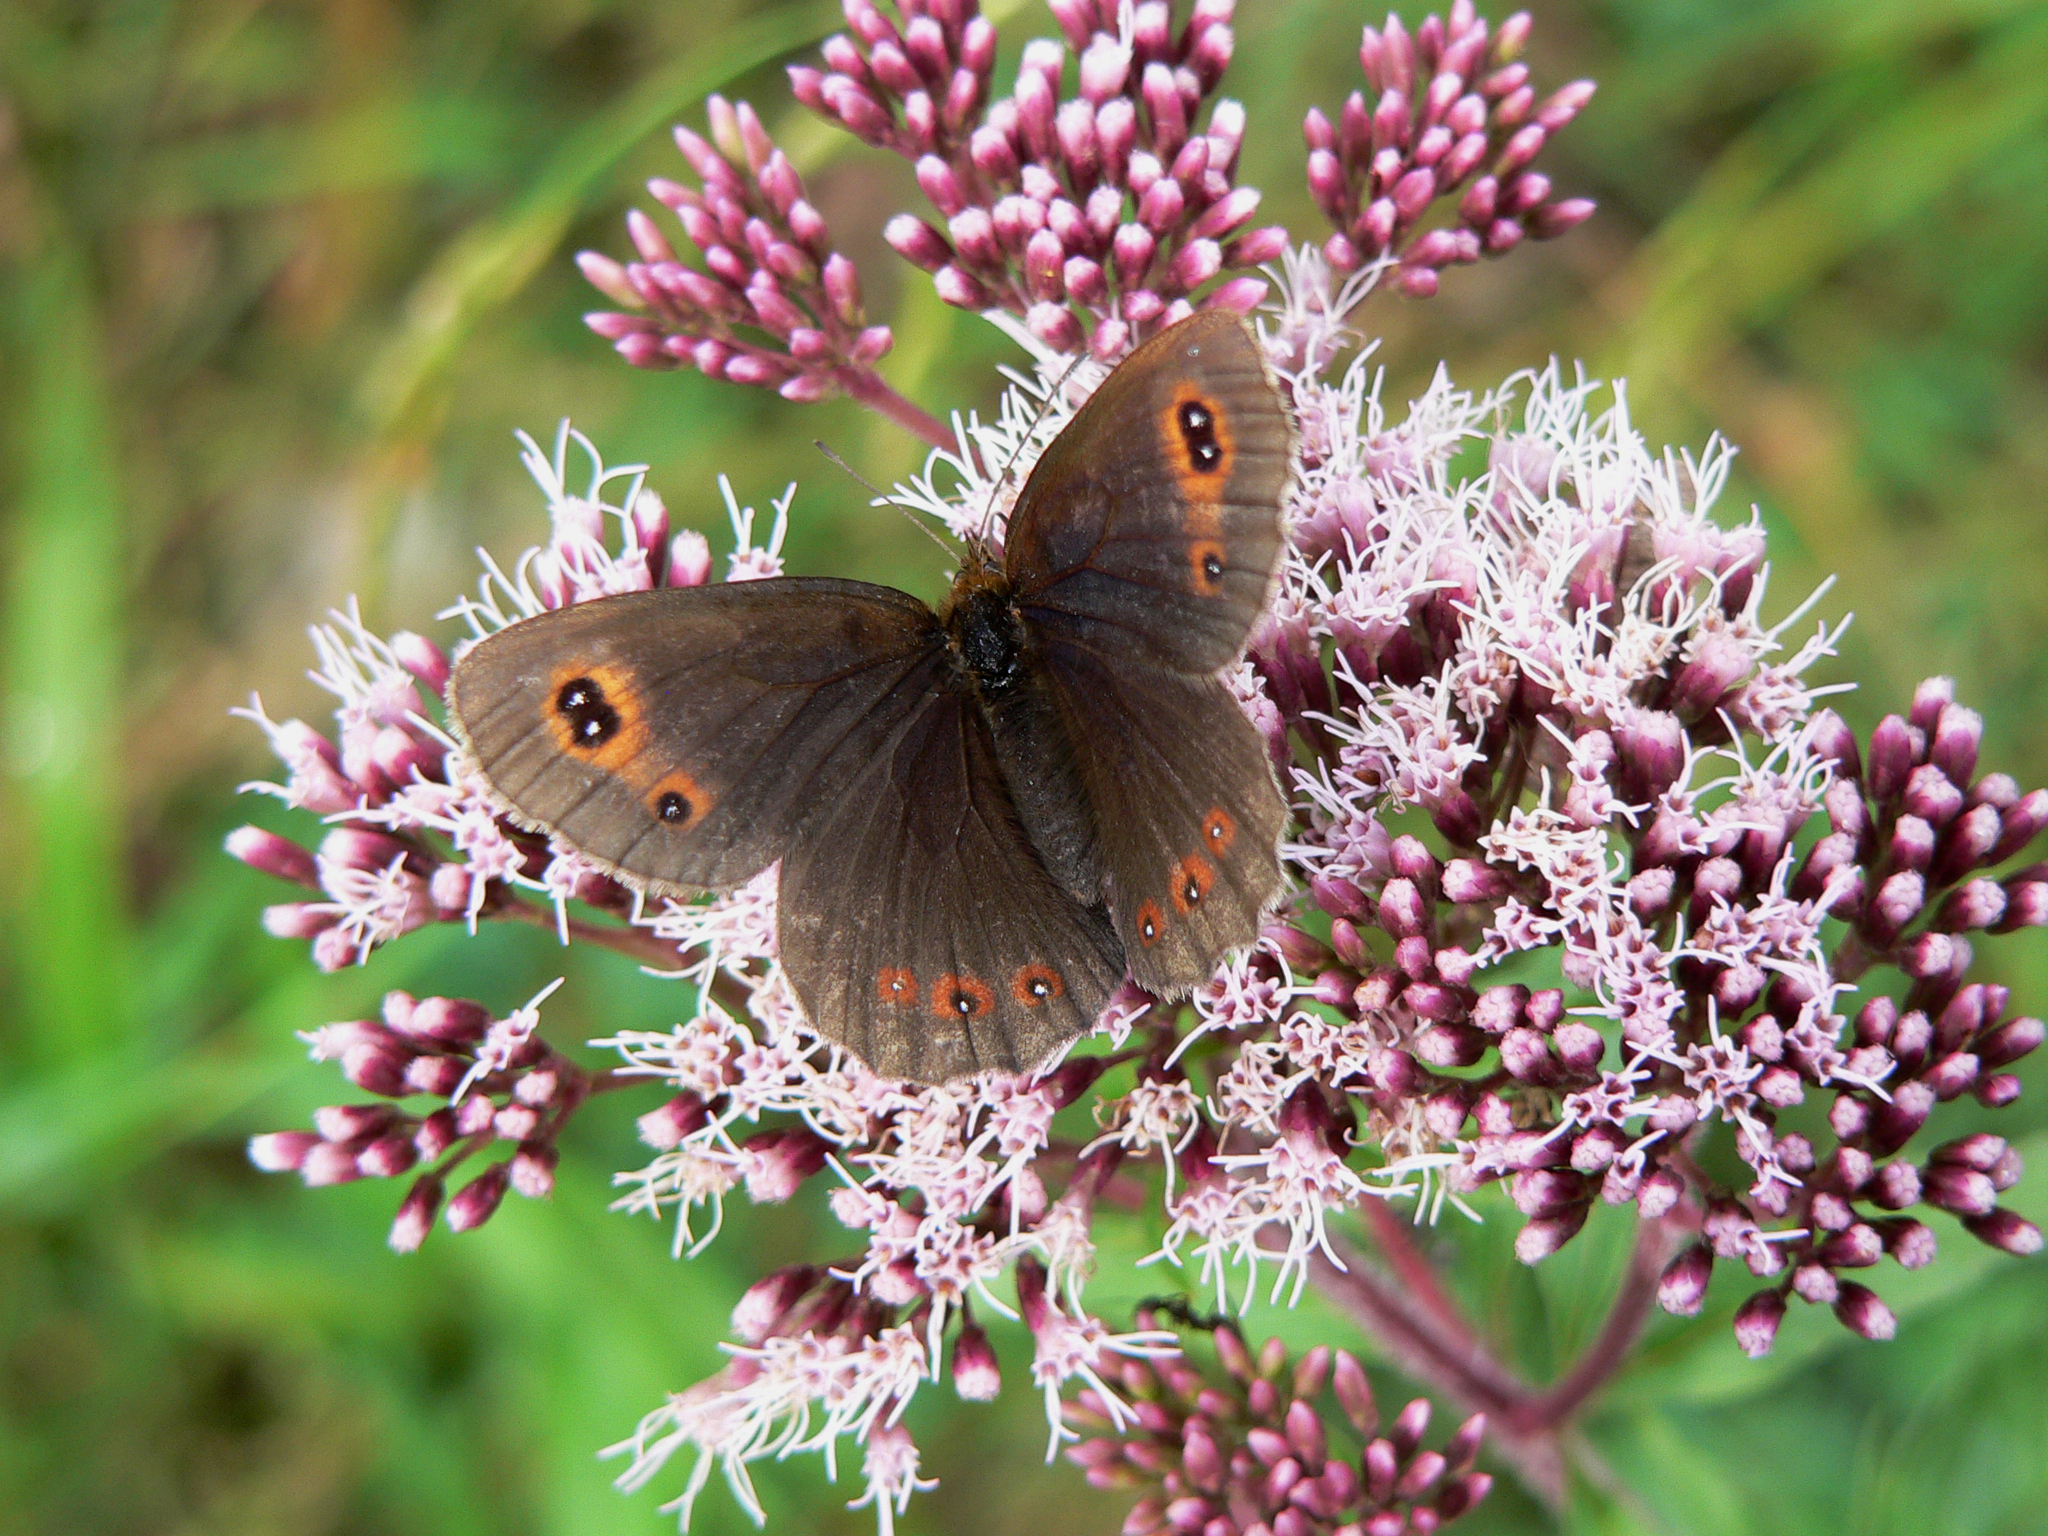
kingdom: Animalia
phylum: Arthropoda
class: Insecta
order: Lepidoptera
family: Nymphalidae
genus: Erebia
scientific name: Erebia aethiops
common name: Scotch argus
